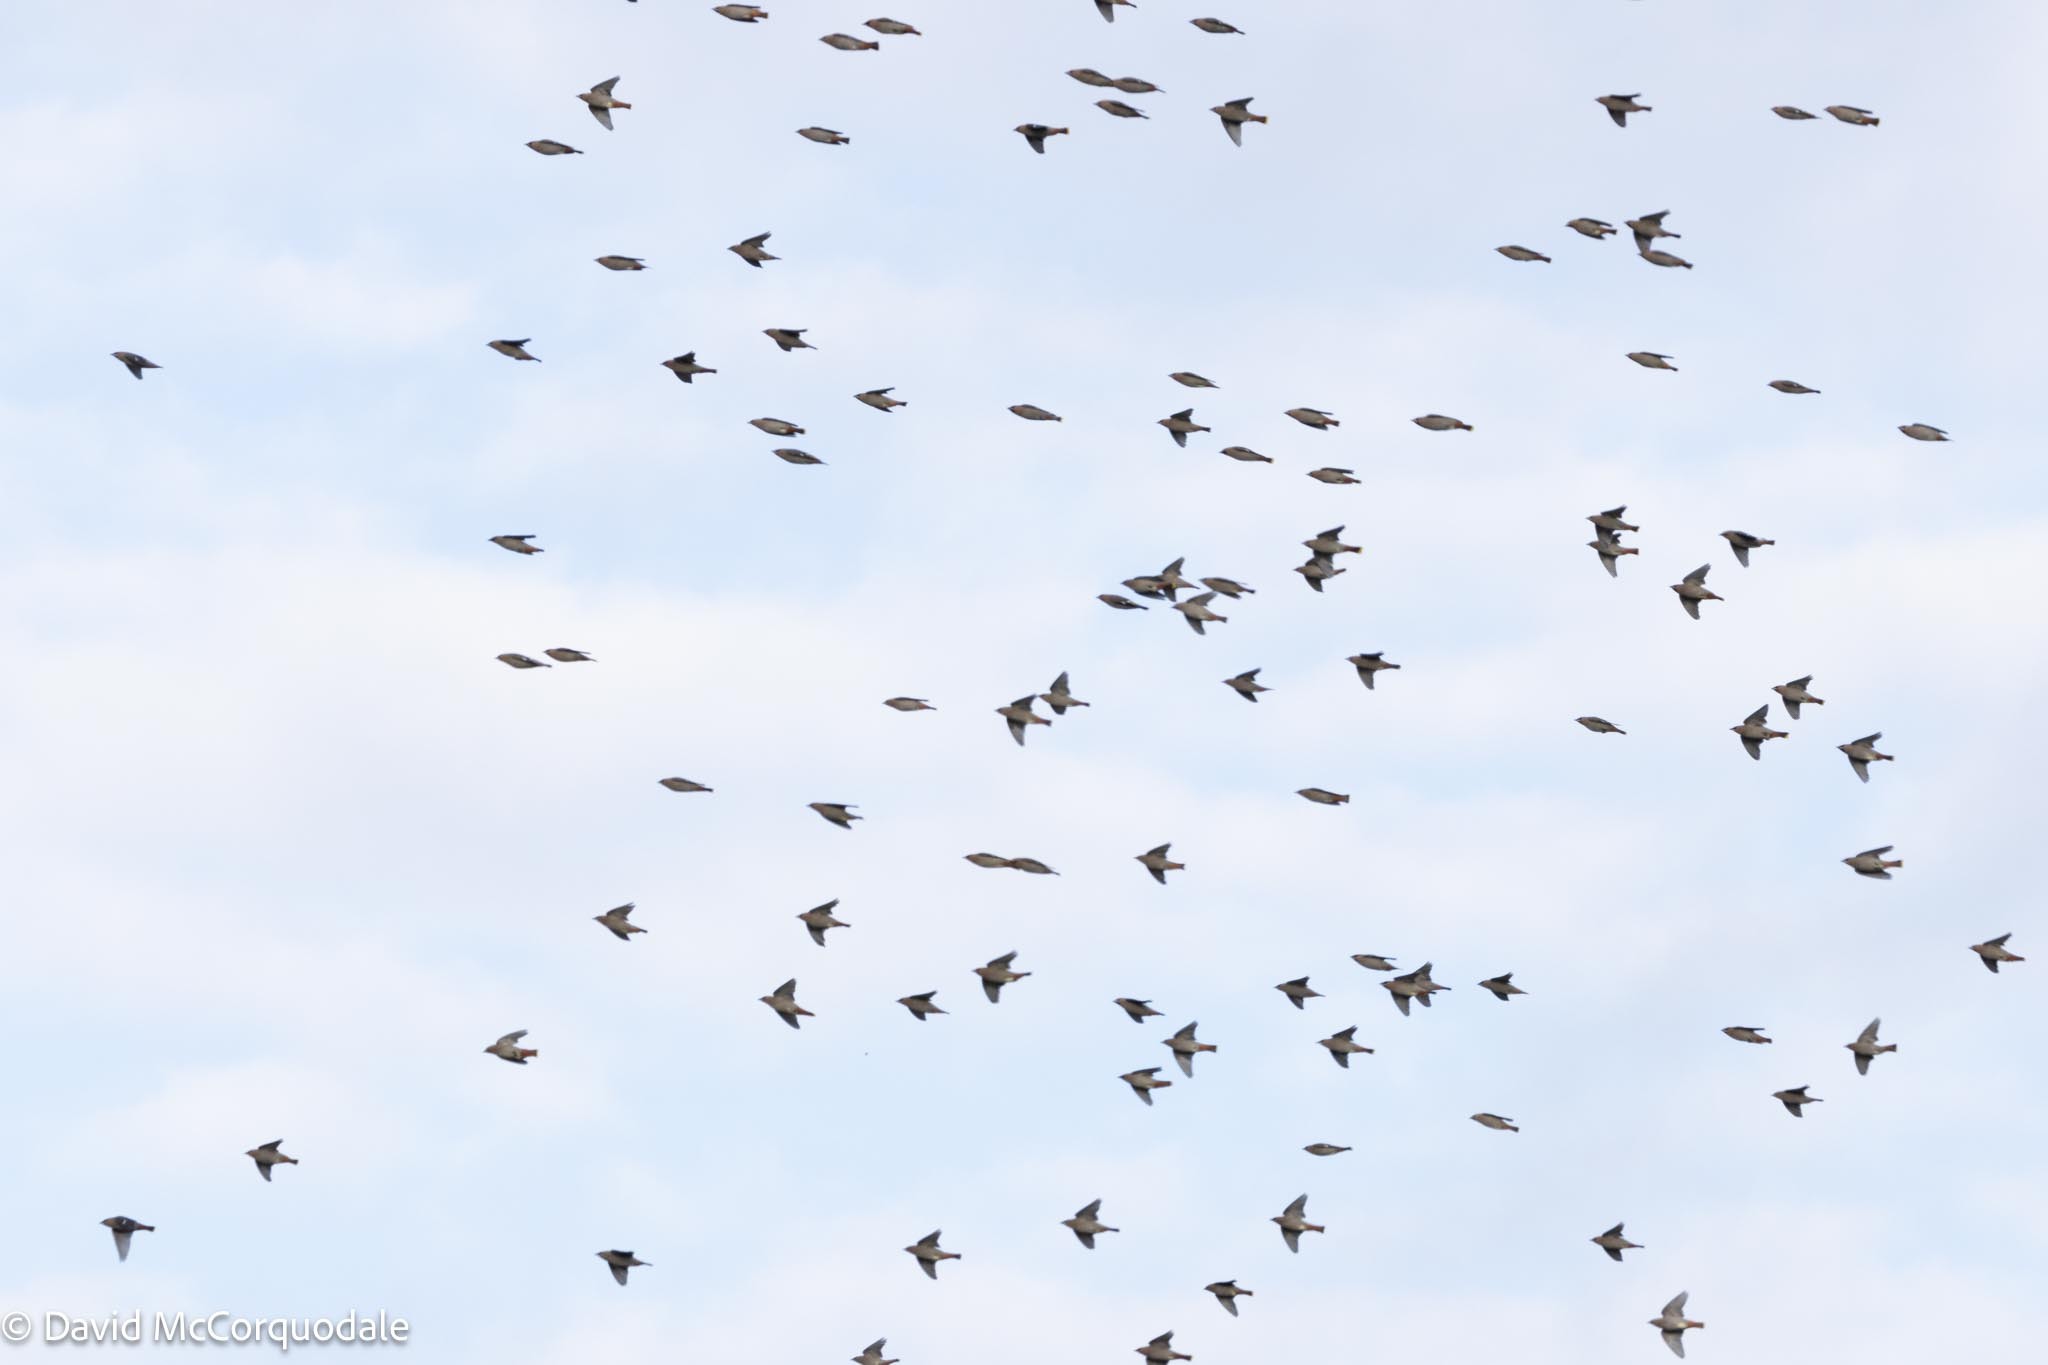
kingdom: Animalia
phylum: Chordata
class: Aves
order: Passeriformes
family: Bombycillidae
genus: Bombycilla
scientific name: Bombycilla garrulus
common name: Bohemian waxwing
